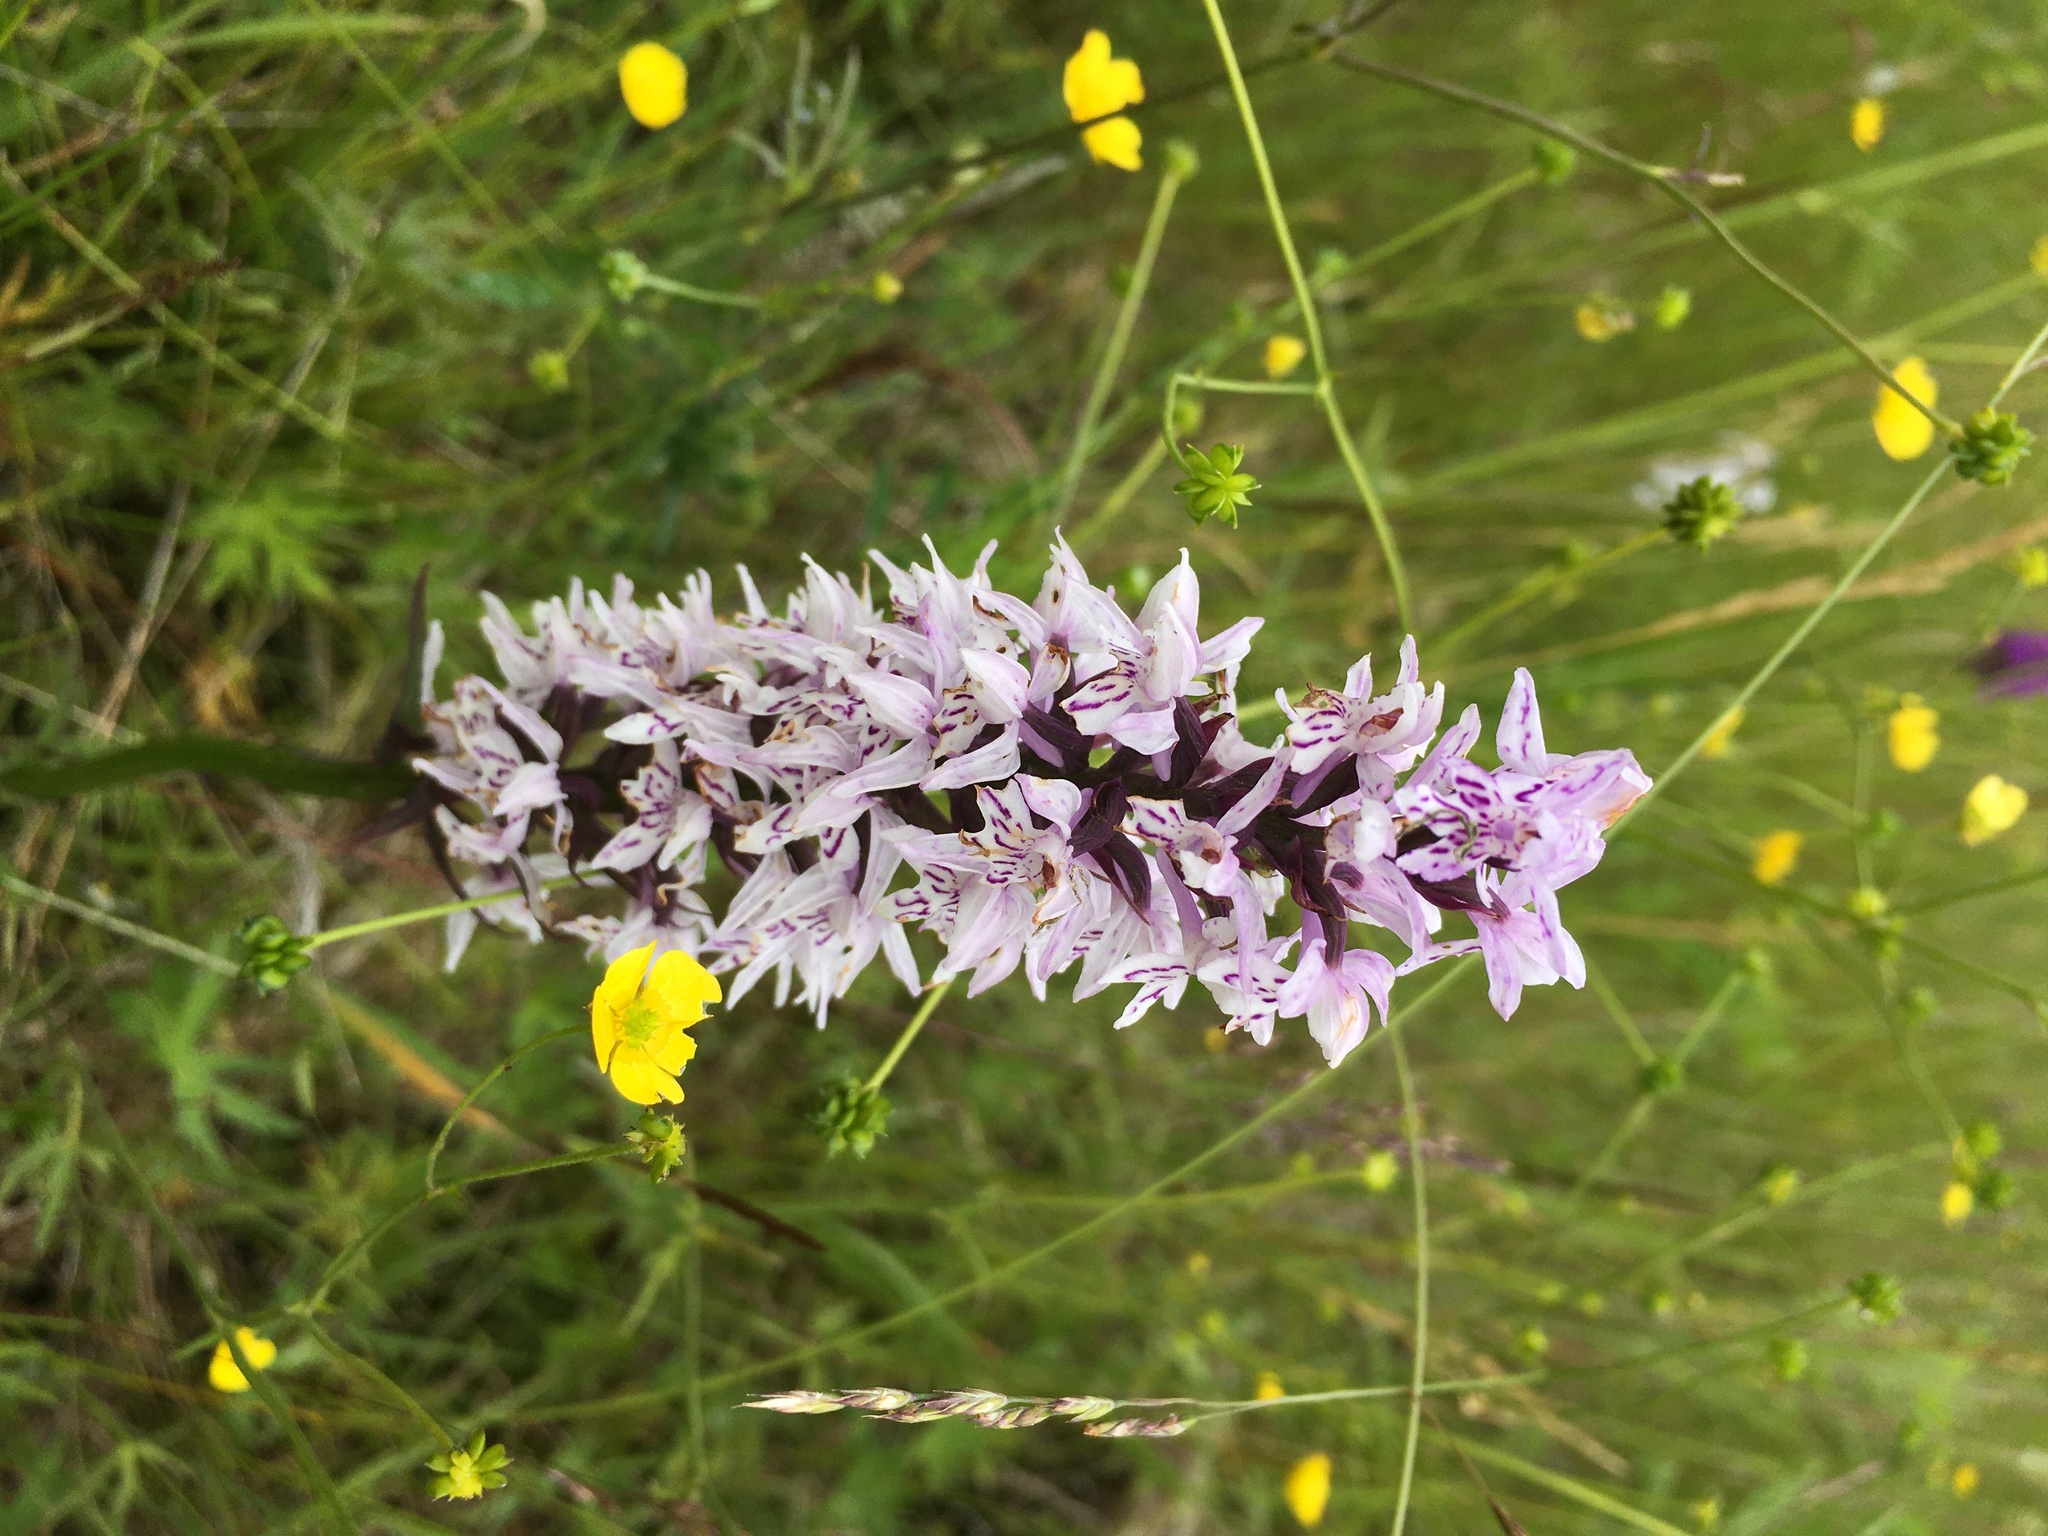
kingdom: Plantae
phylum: Tracheophyta
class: Liliopsida
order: Asparagales
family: Orchidaceae
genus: Dactylorhiza
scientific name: Dactylorhiza maculata
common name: Heath spotted-orchid
